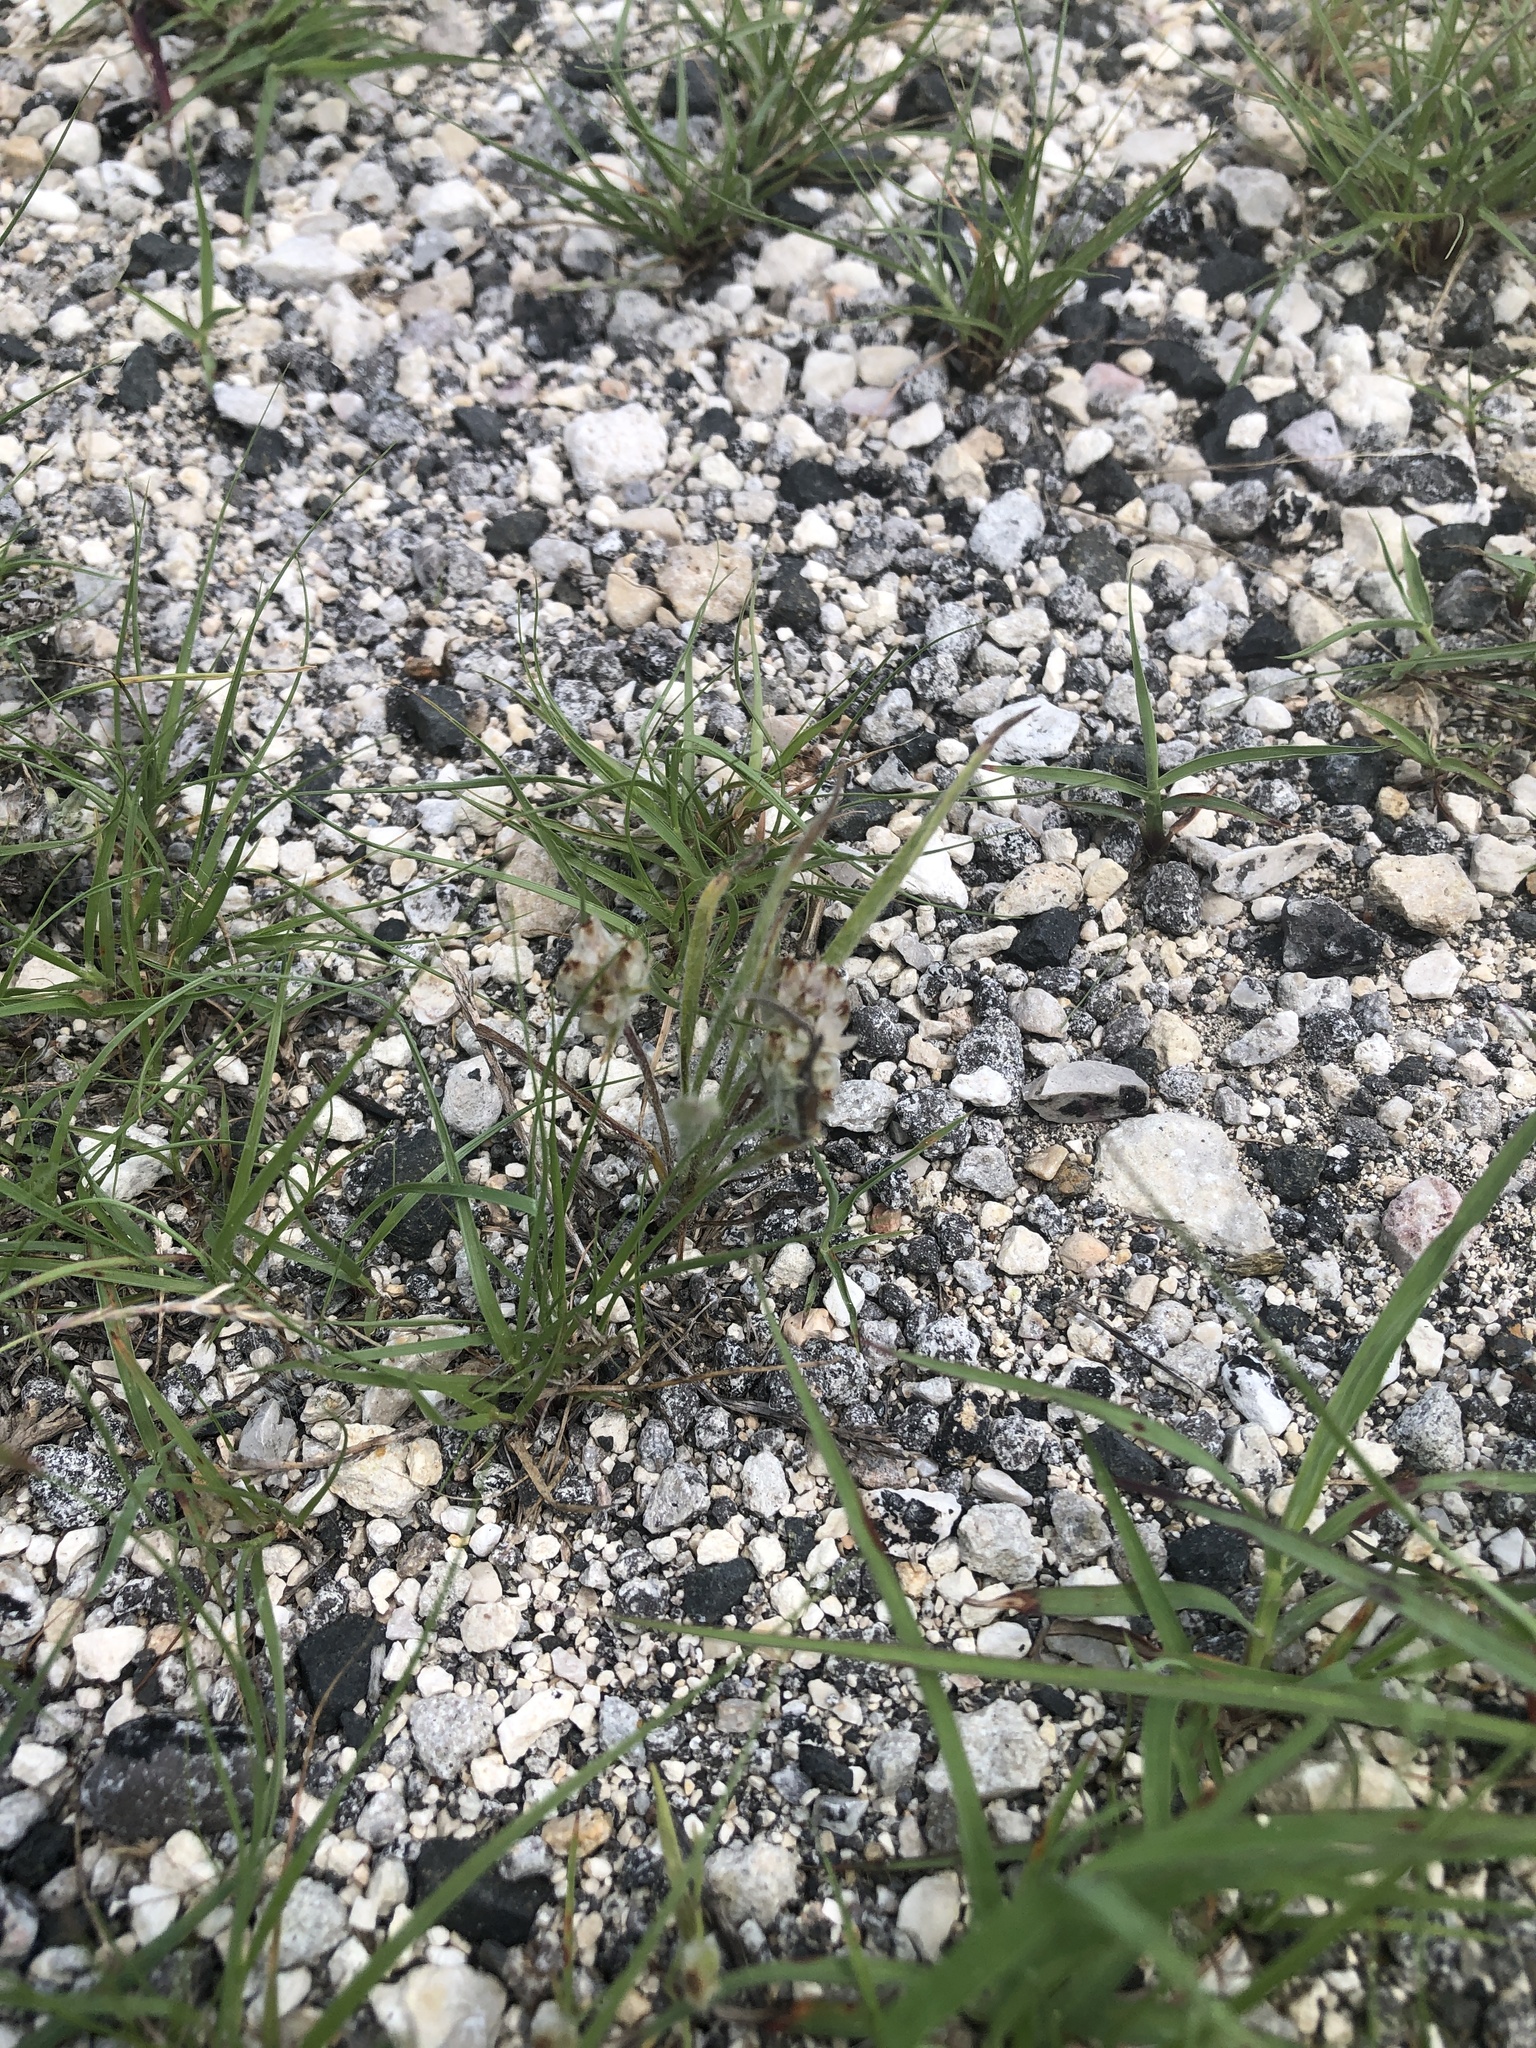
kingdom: Plantae
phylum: Tracheophyta
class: Magnoliopsida
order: Lamiales
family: Plantaginaceae
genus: Plantago
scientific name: Plantago helleri
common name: Heller's plantain
